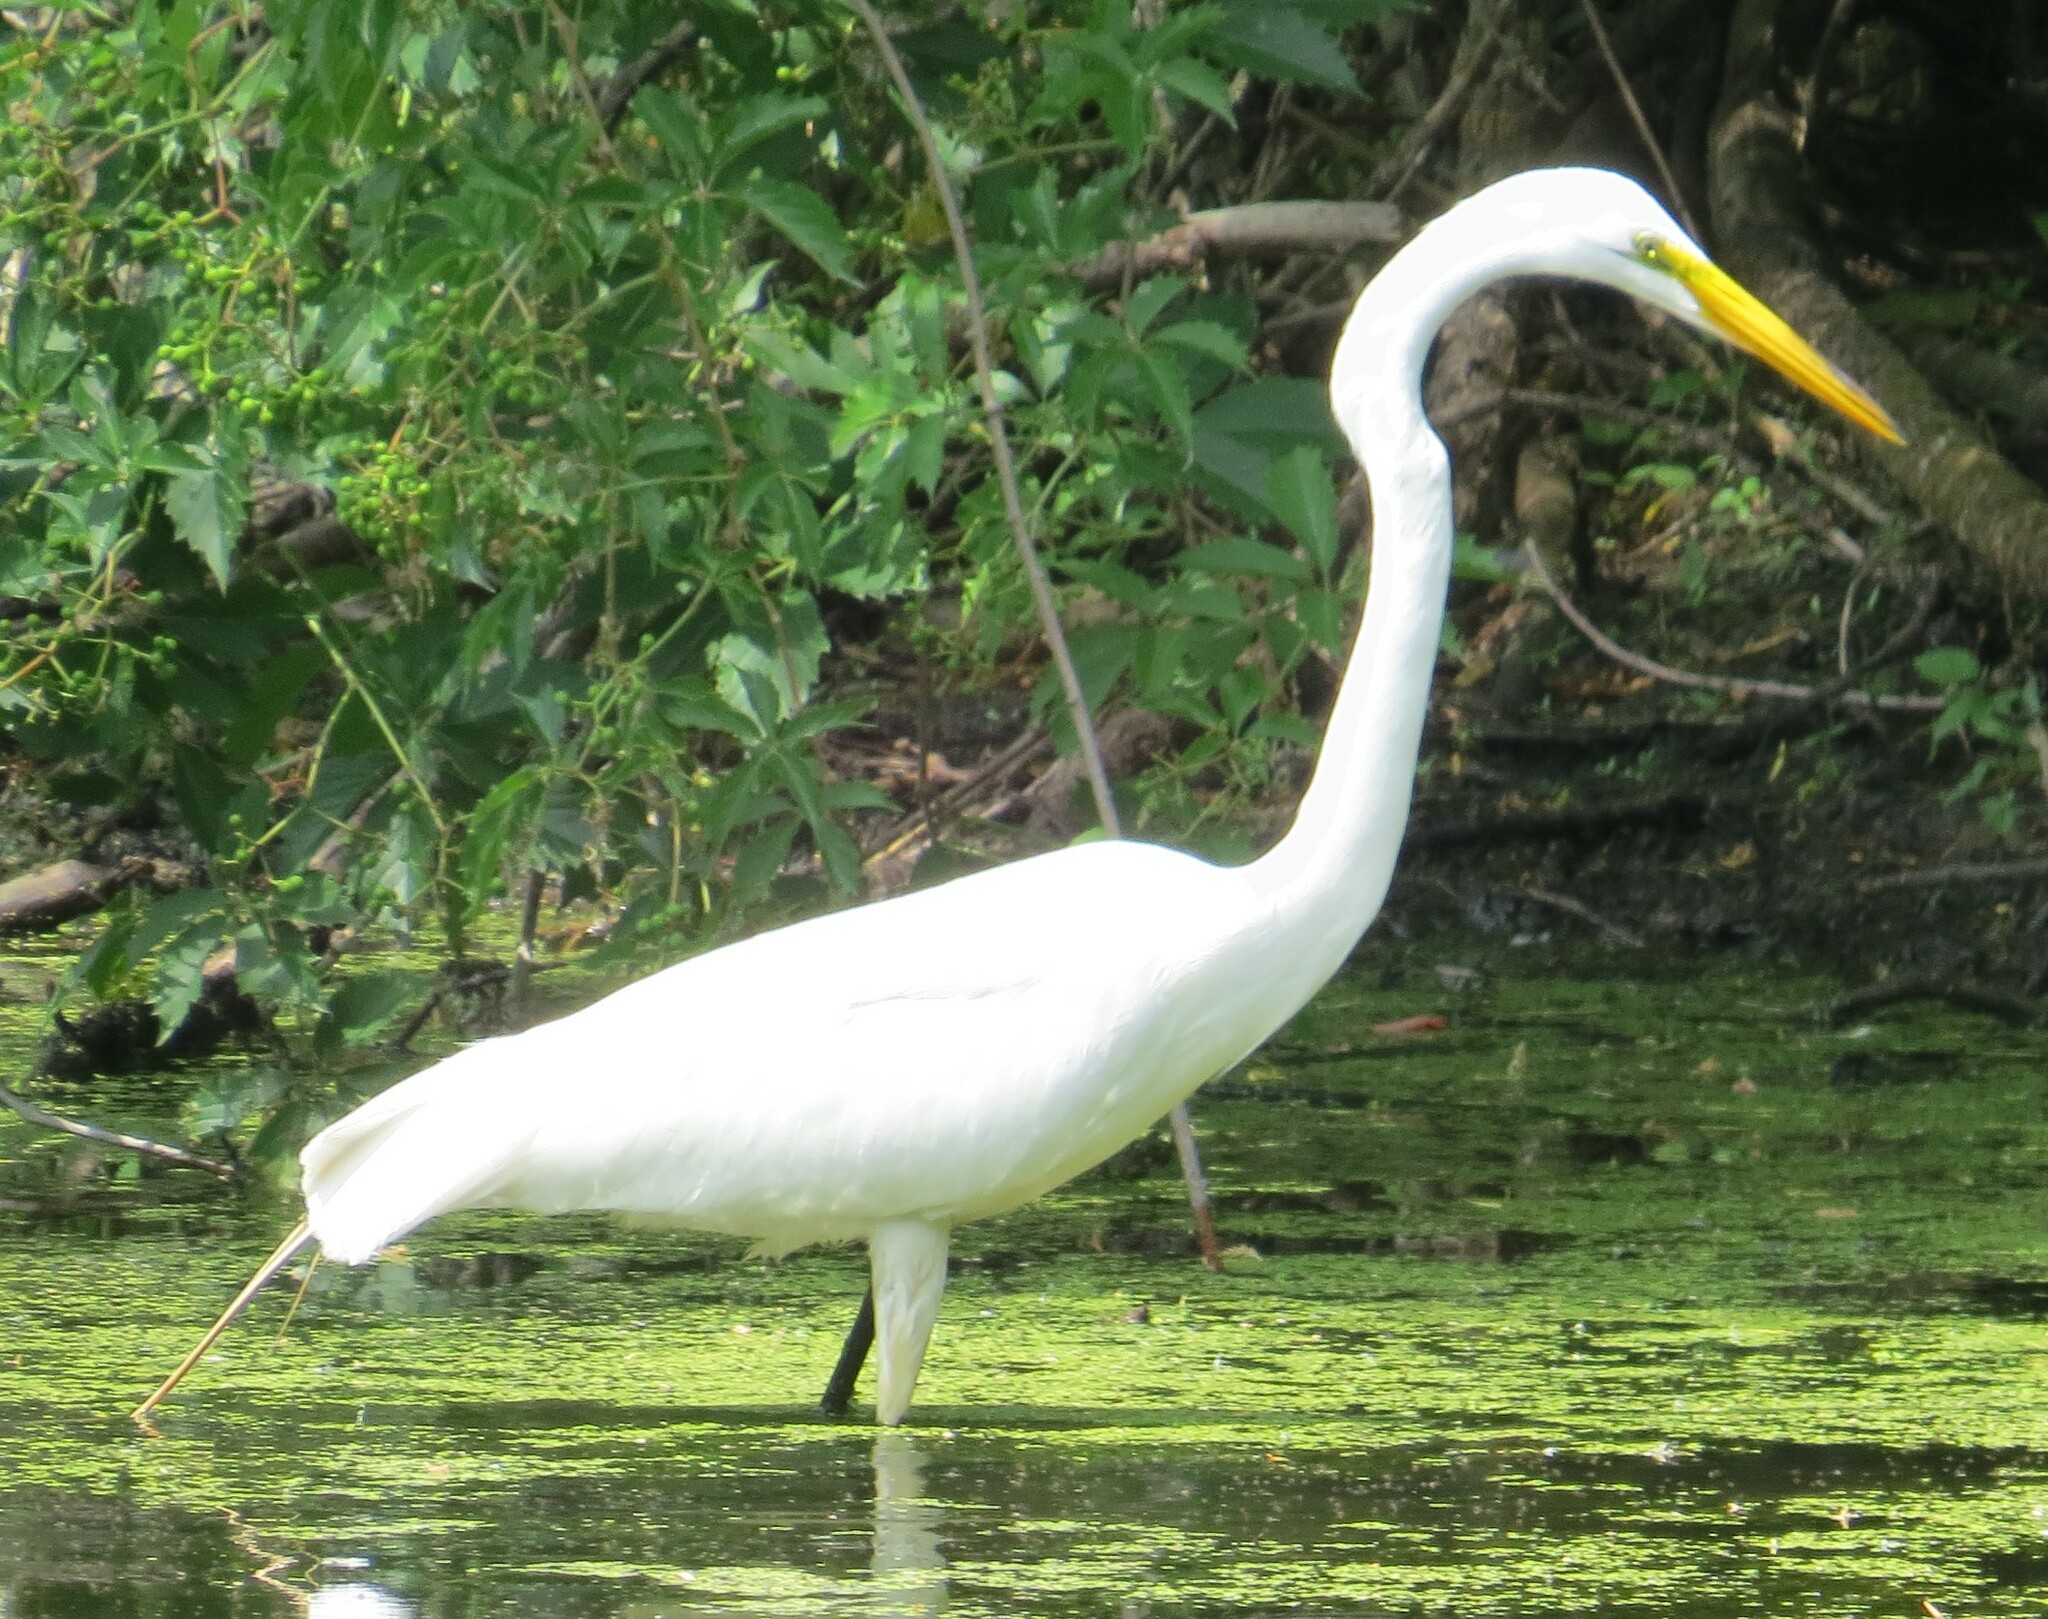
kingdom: Animalia
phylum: Chordata
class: Aves
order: Pelecaniformes
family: Ardeidae
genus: Ardea
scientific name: Ardea alba
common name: Great egret
